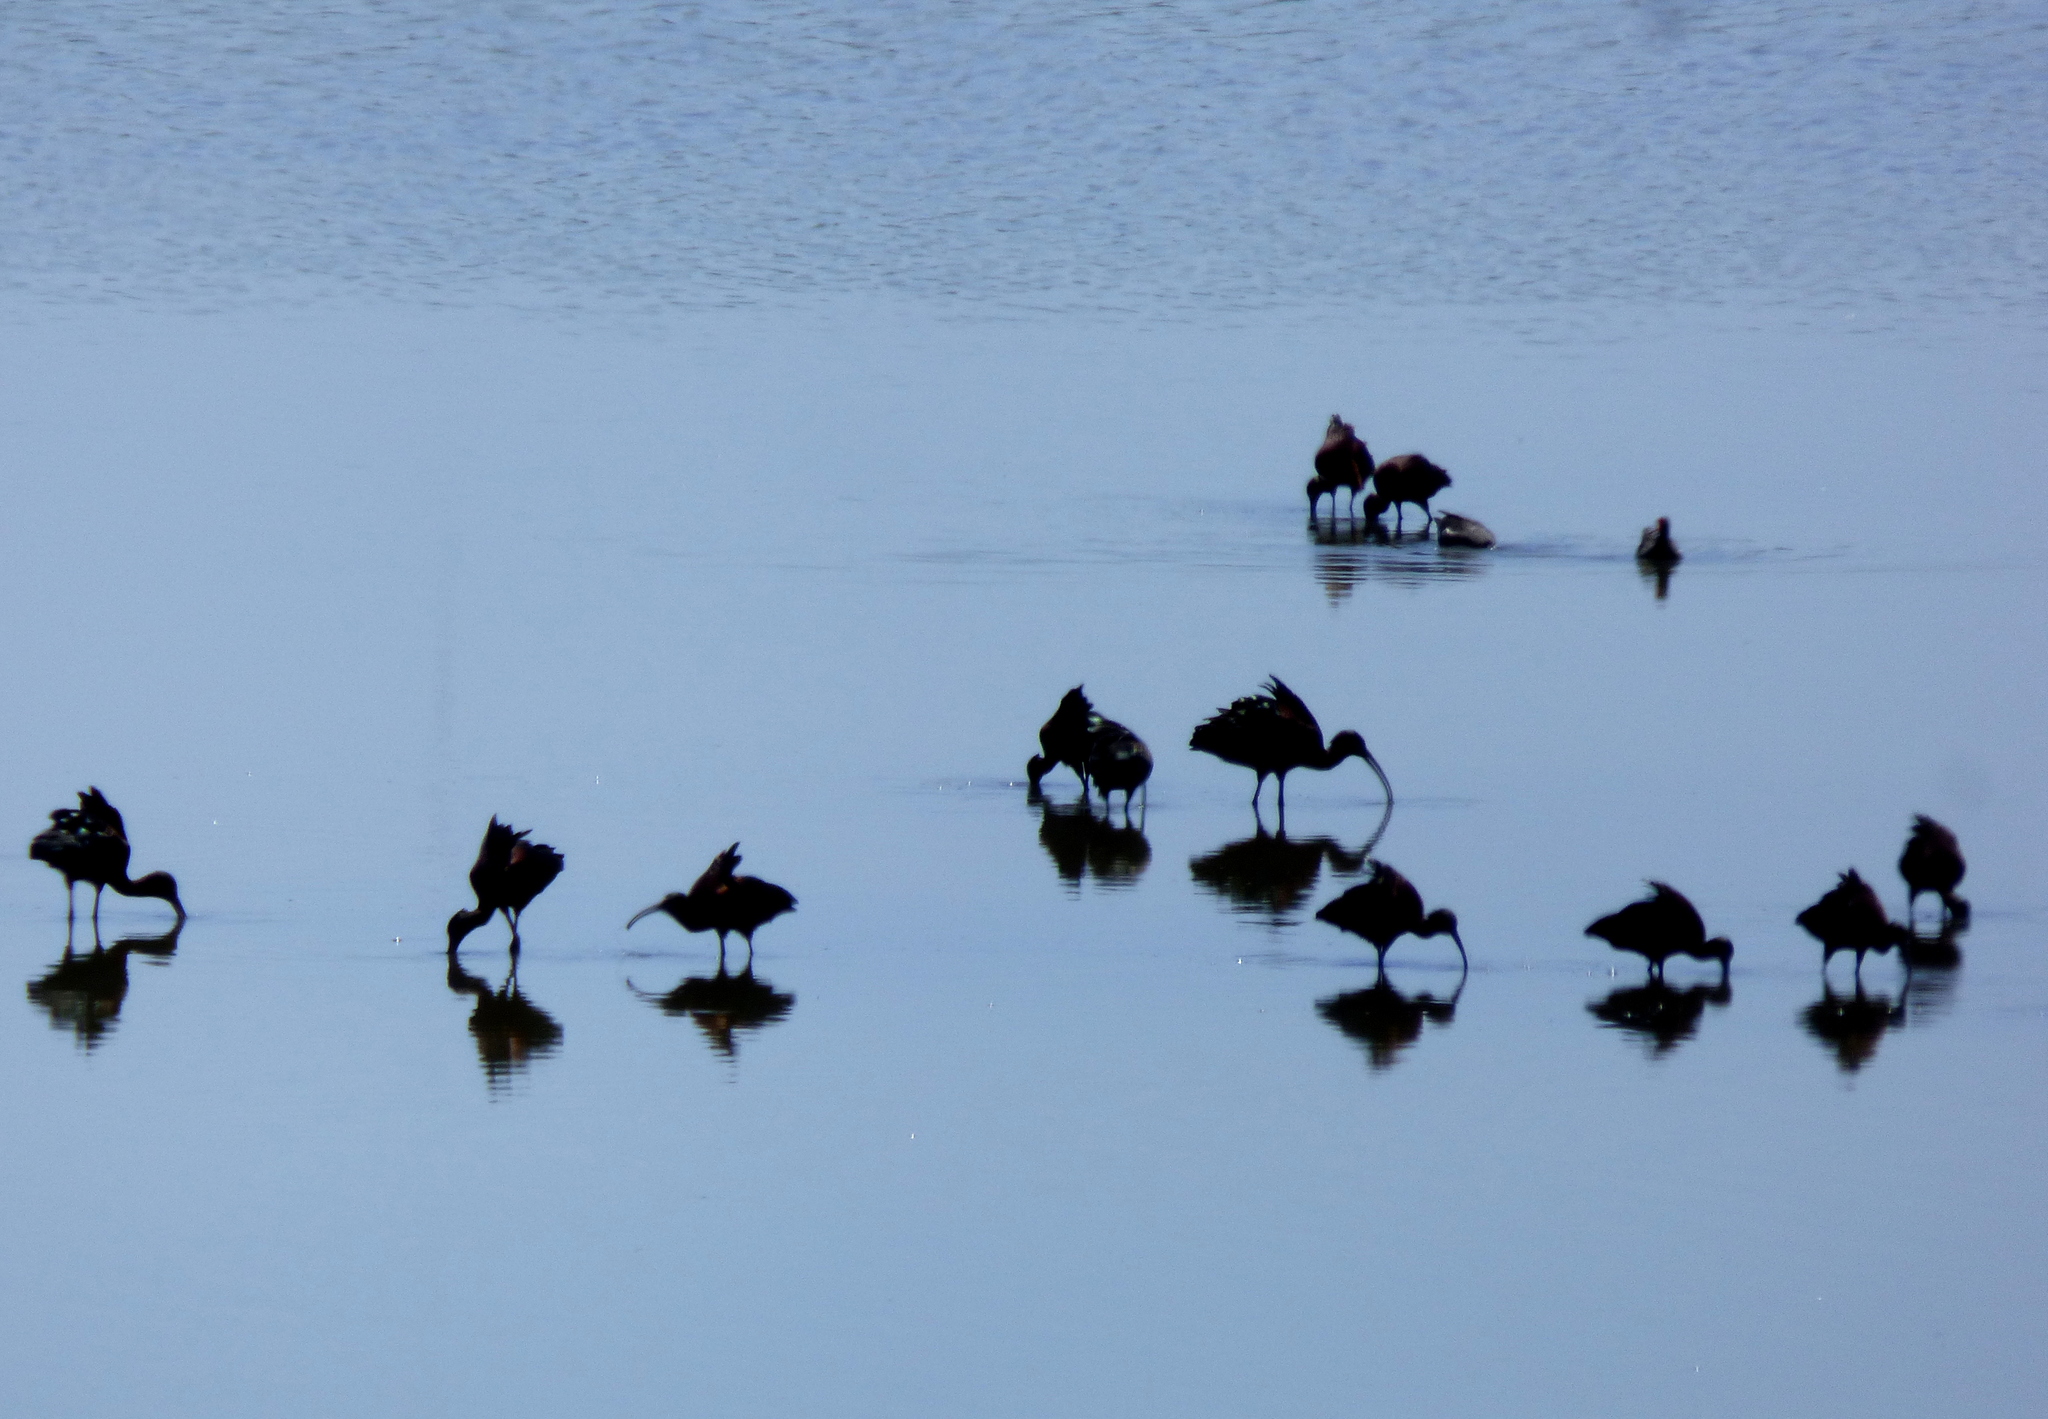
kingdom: Animalia
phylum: Chordata
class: Aves
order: Pelecaniformes
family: Threskiornithidae
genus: Plegadis
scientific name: Plegadis chihi
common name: White-faced ibis
